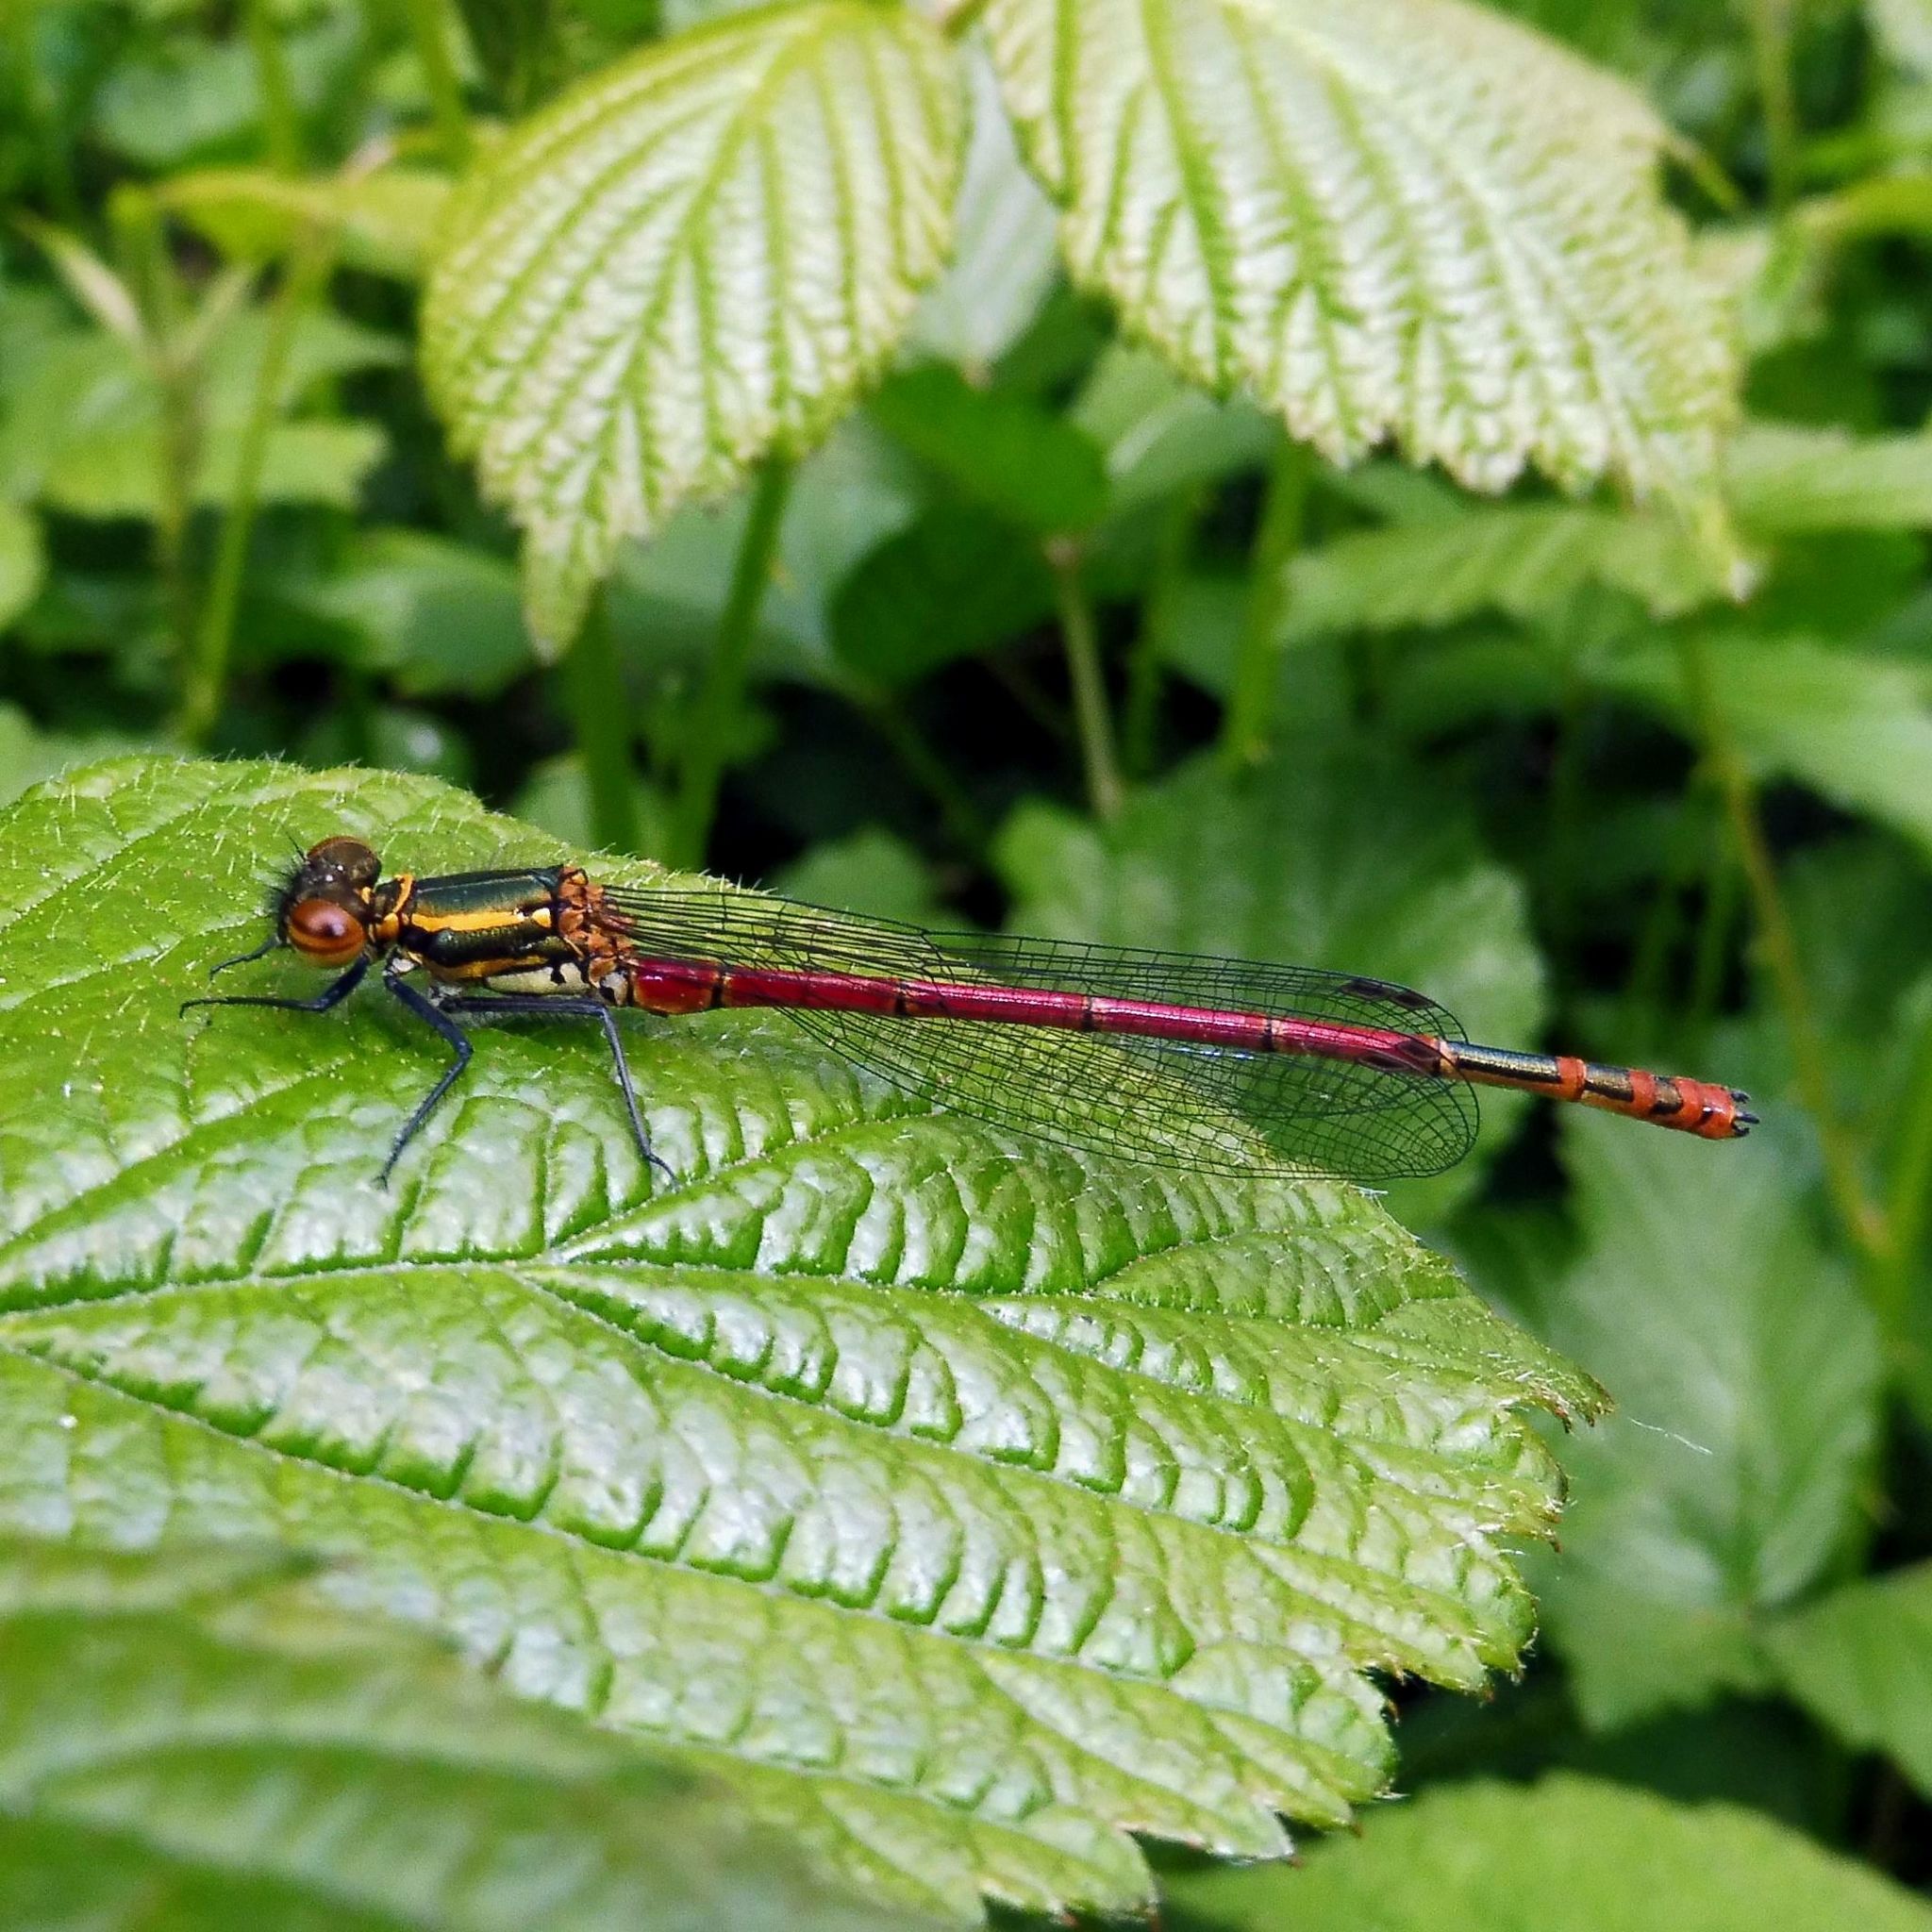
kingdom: Animalia
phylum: Arthropoda
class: Insecta
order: Odonata
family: Coenagrionidae
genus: Pyrrhosoma
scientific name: Pyrrhosoma nymphula
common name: Large red damsel
